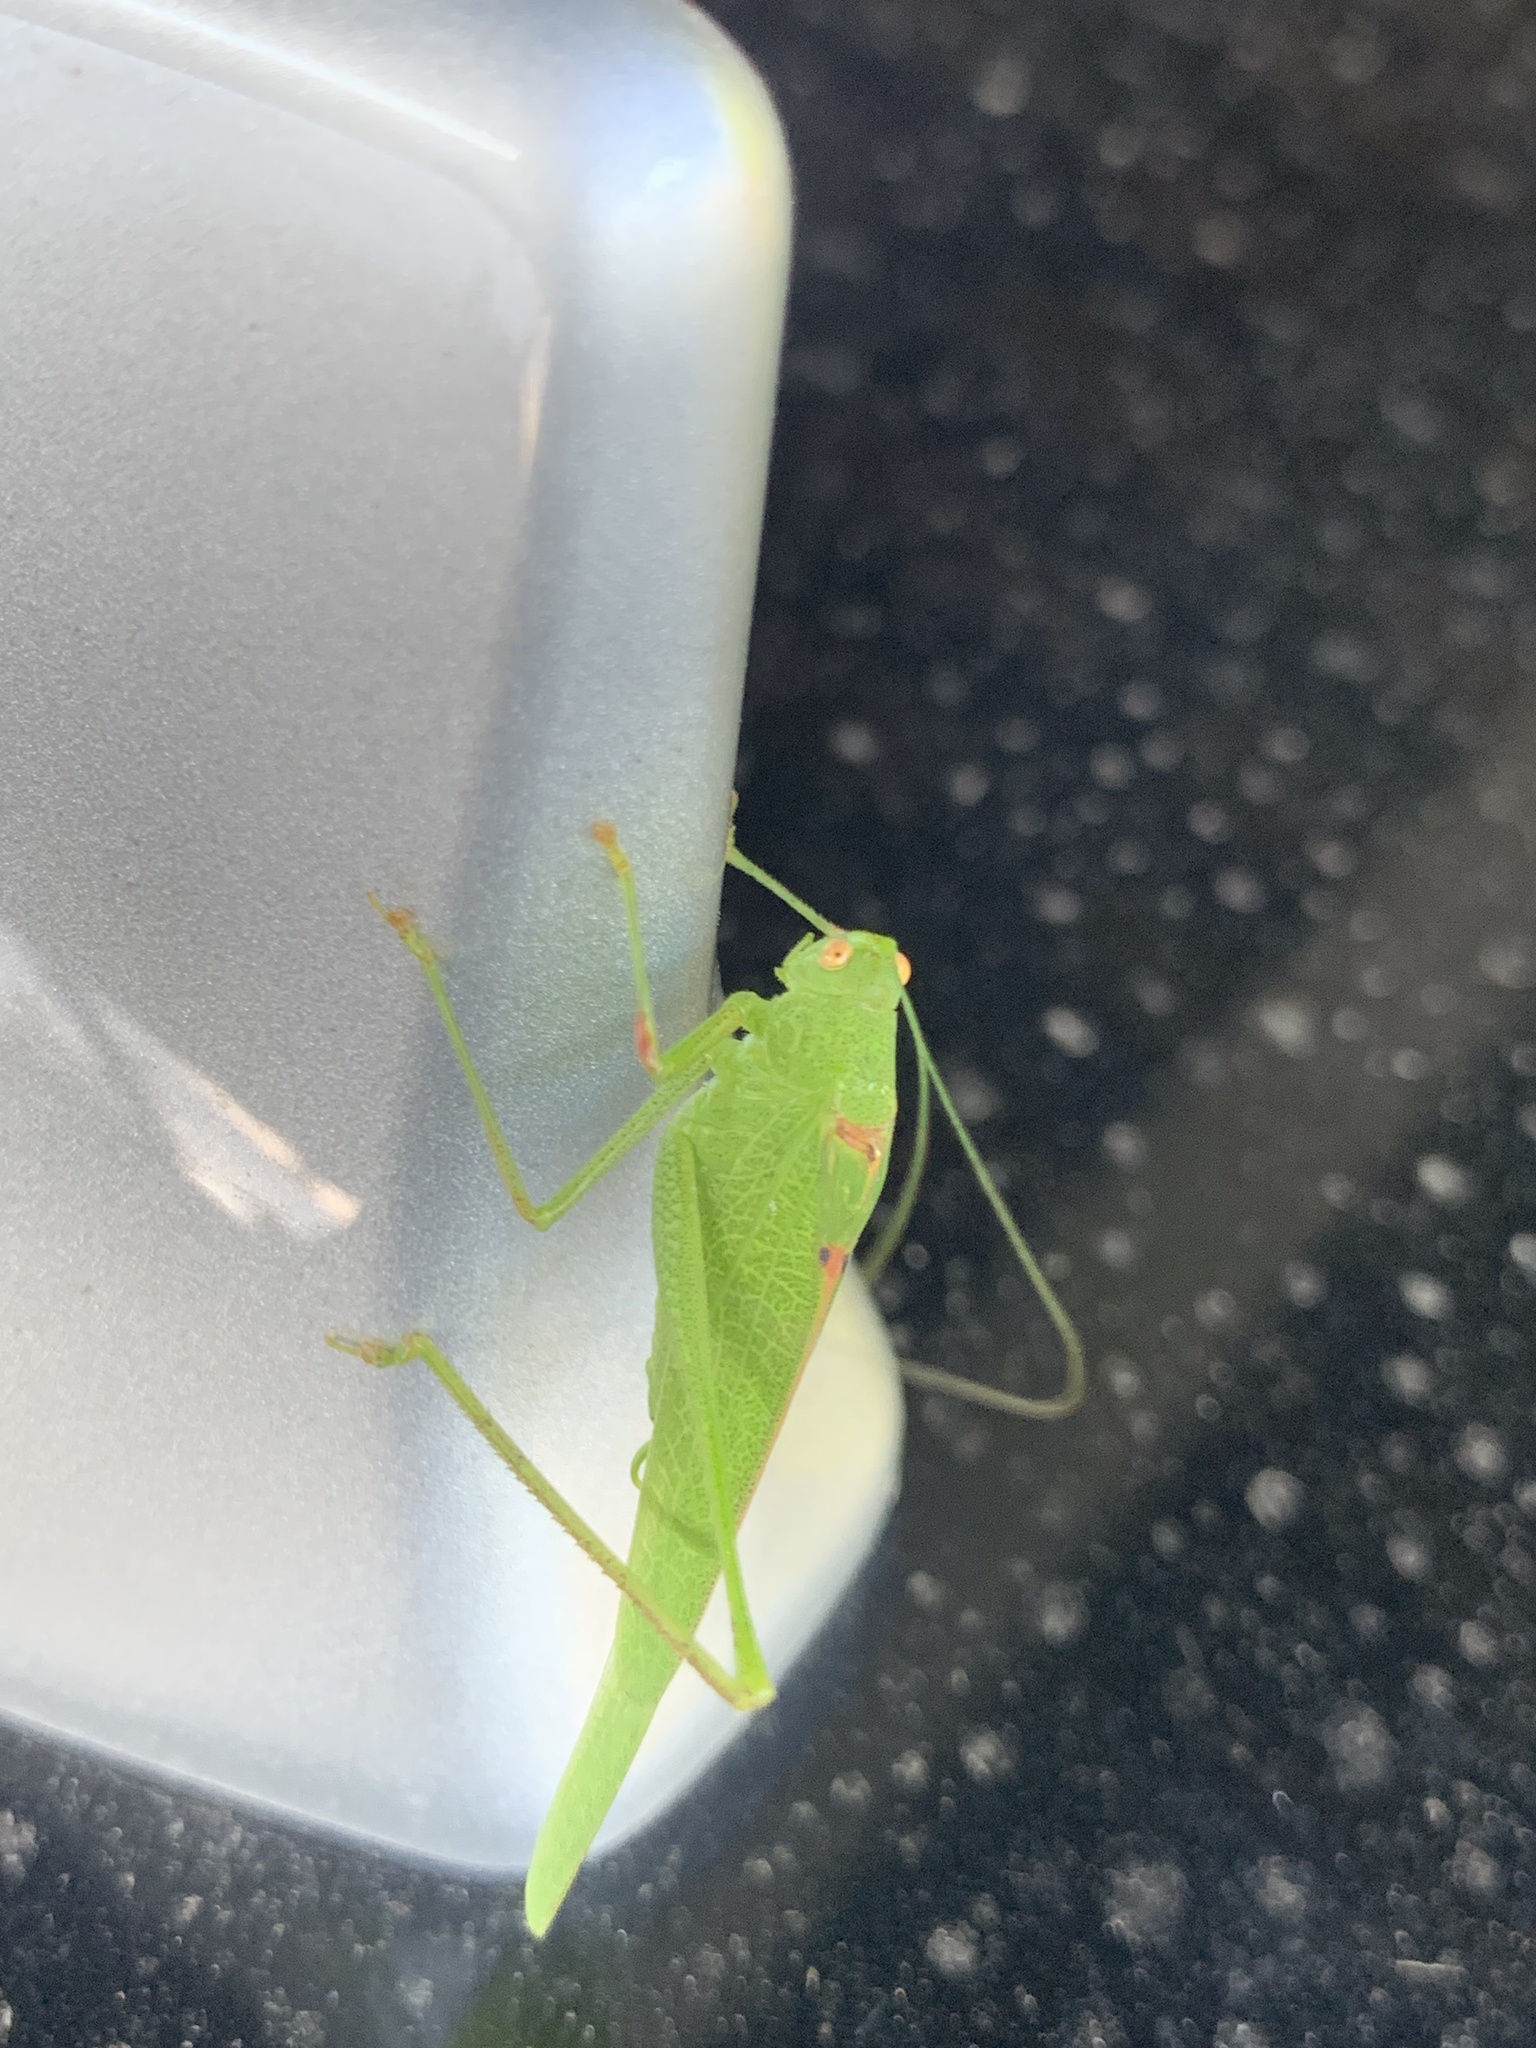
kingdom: Animalia
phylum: Arthropoda
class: Insecta
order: Orthoptera
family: Tettigoniidae
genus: Phaneroptera
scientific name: Phaneroptera nana
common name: Southern sickle bush-cricket
